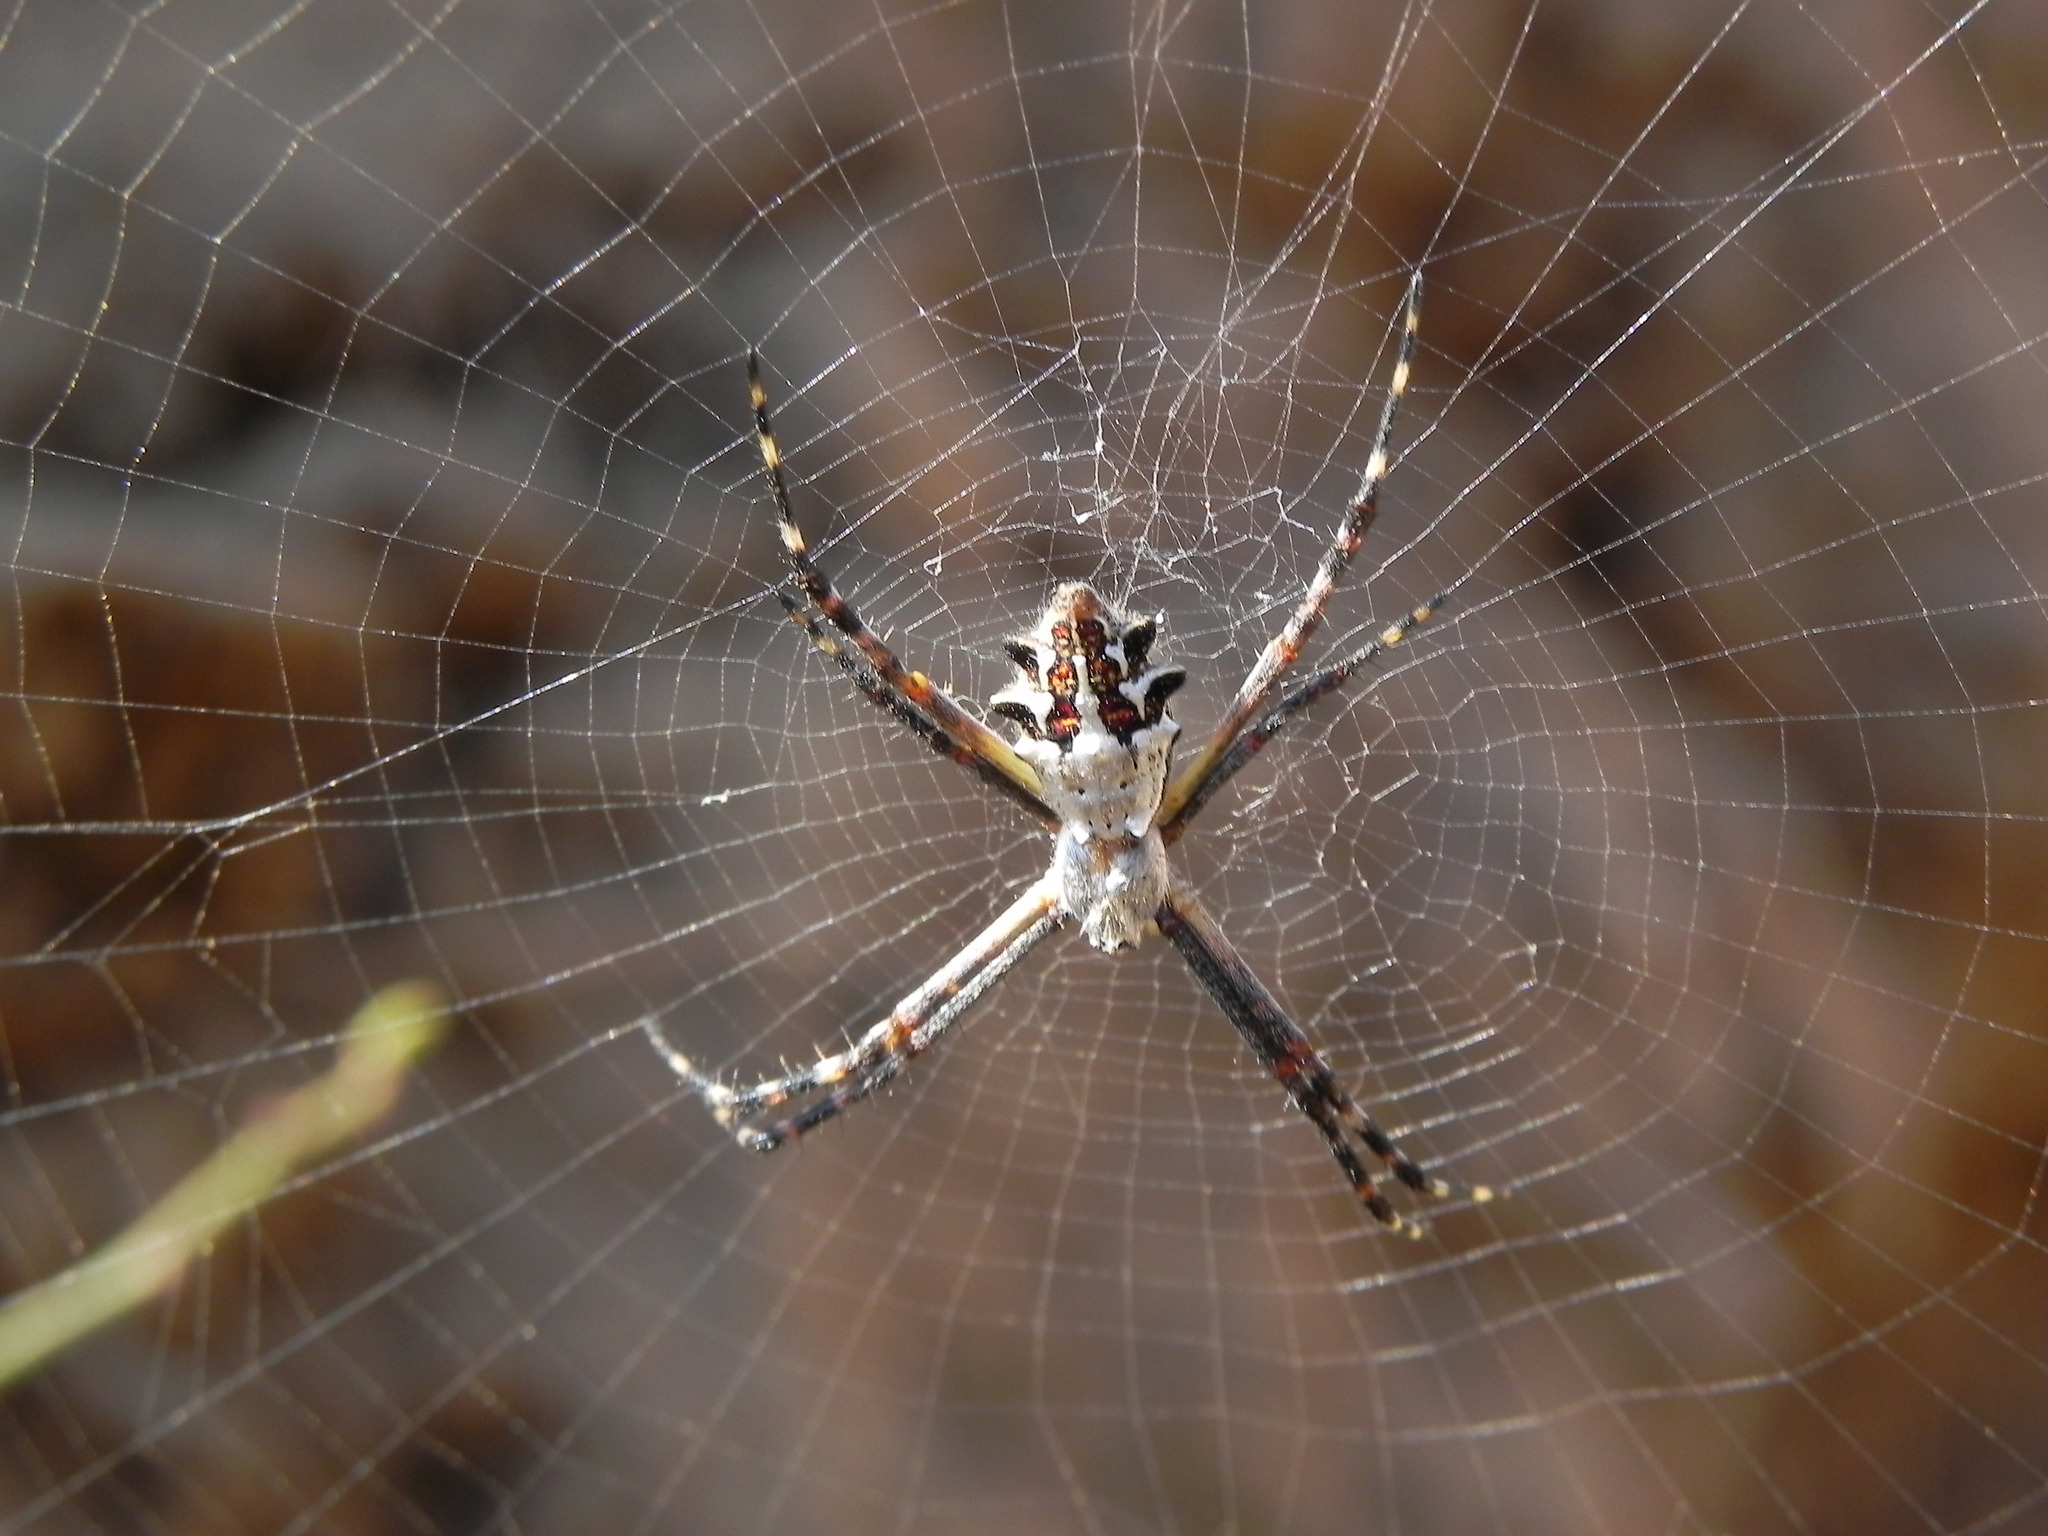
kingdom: Animalia
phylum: Arthropoda
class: Arachnida
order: Araneae
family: Araneidae
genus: Argiope
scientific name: Argiope argentata
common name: Orb weavers
